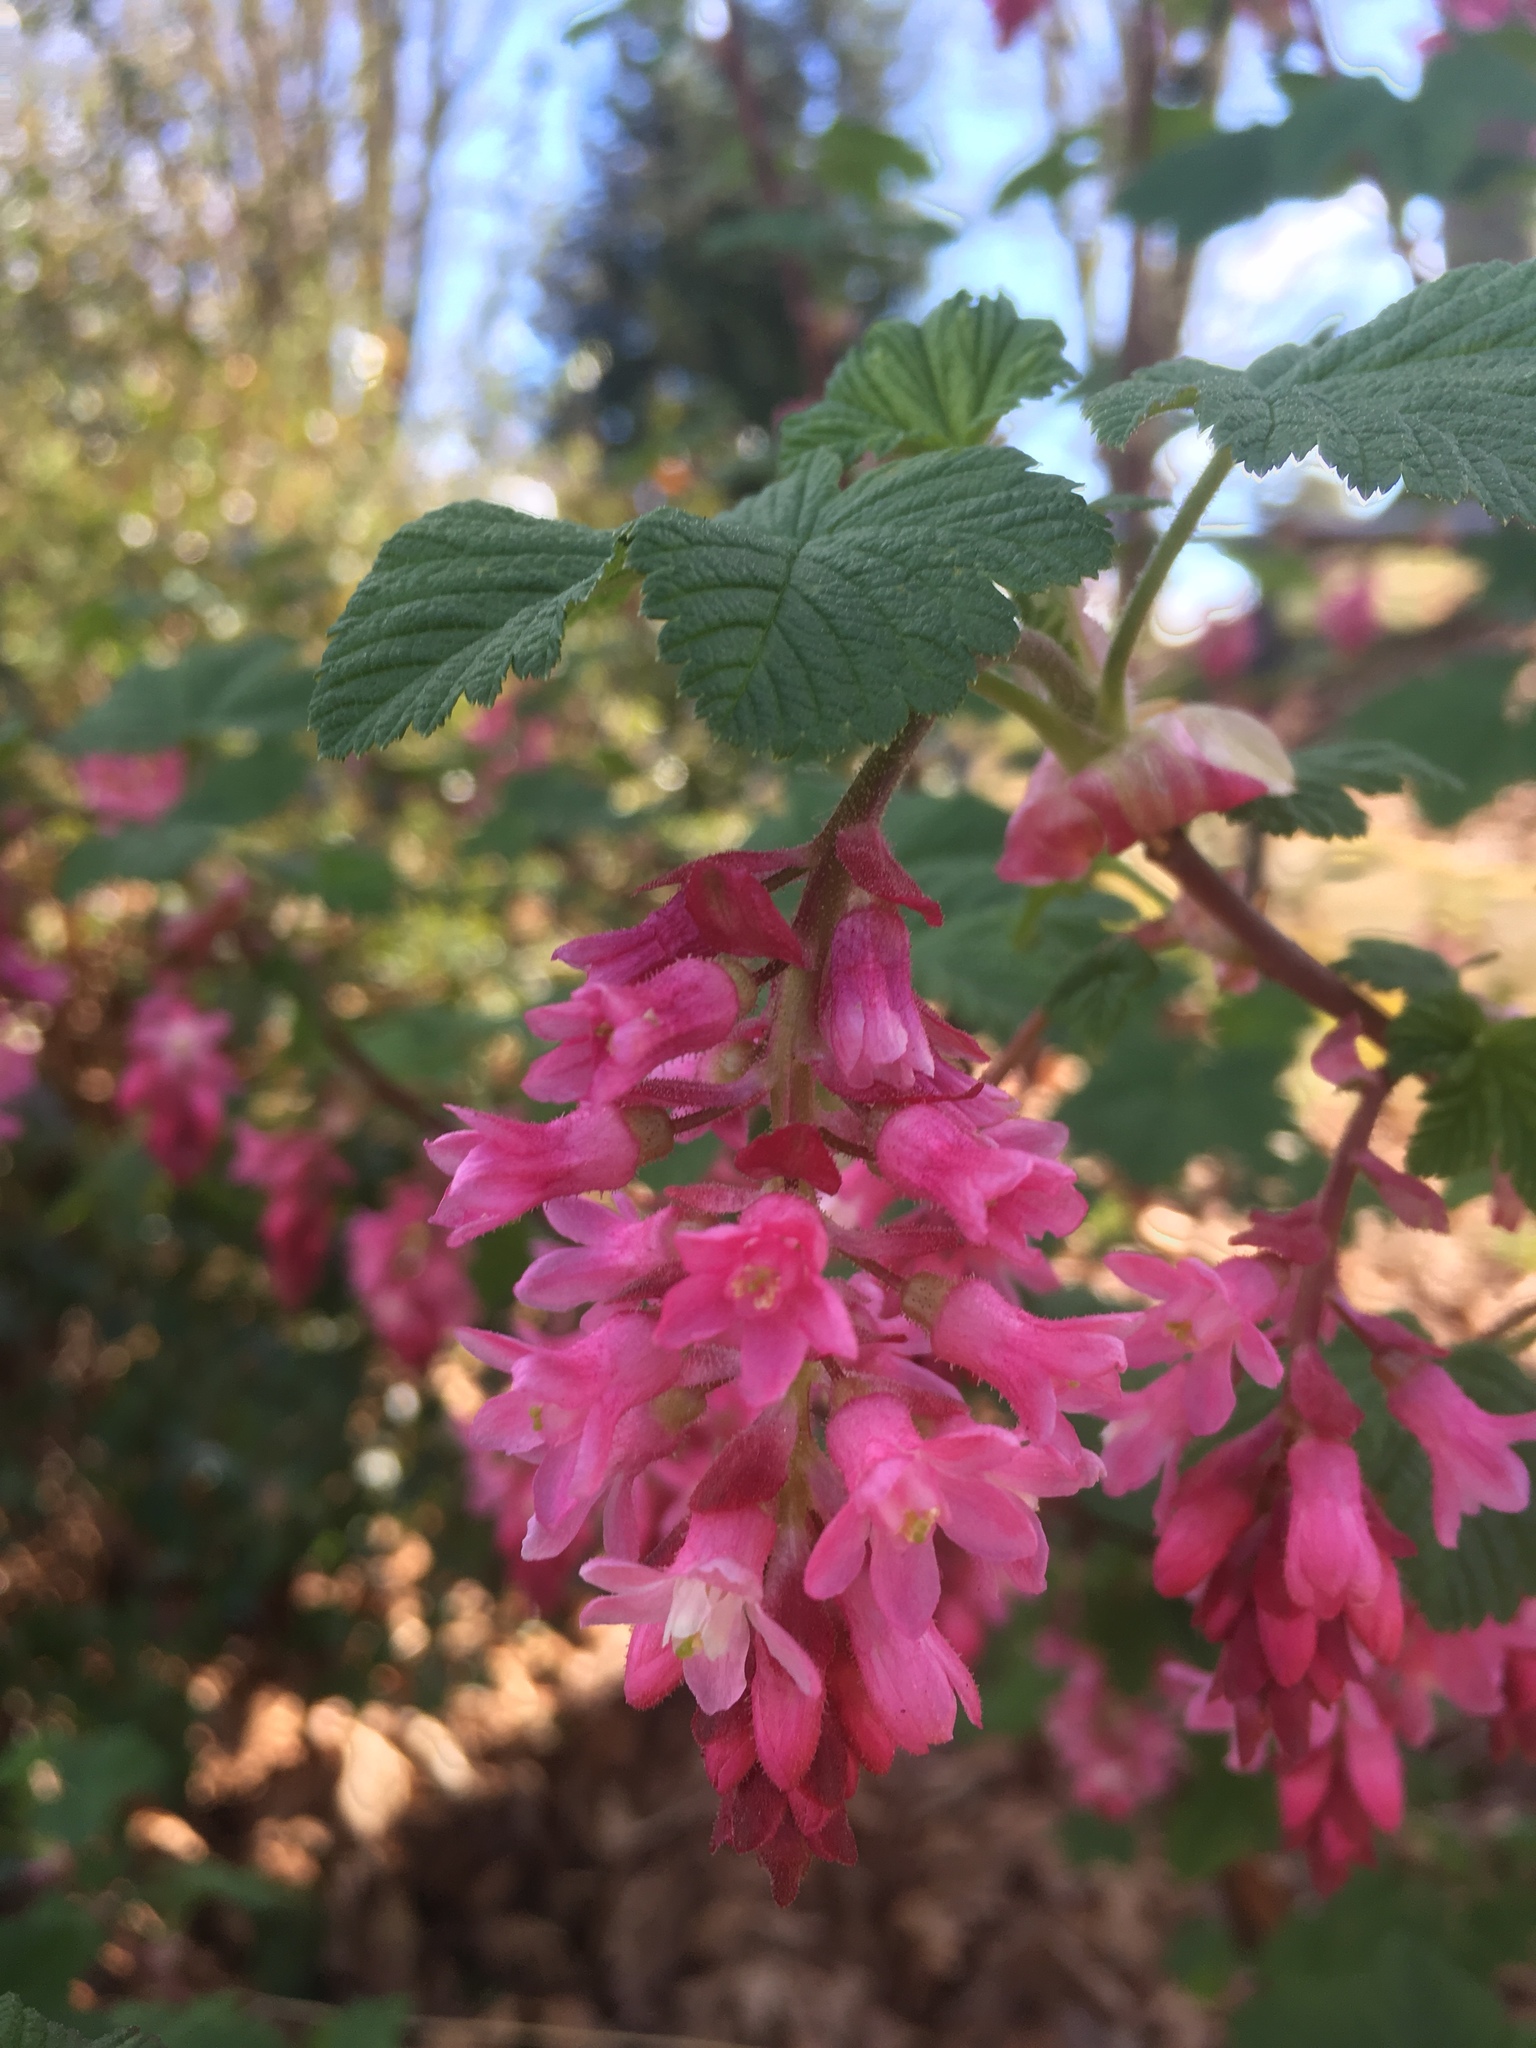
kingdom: Plantae
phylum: Tracheophyta
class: Magnoliopsida
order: Saxifragales
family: Grossulariaceae
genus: Ribes
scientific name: Ribes sanguineum
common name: Flowering currant
